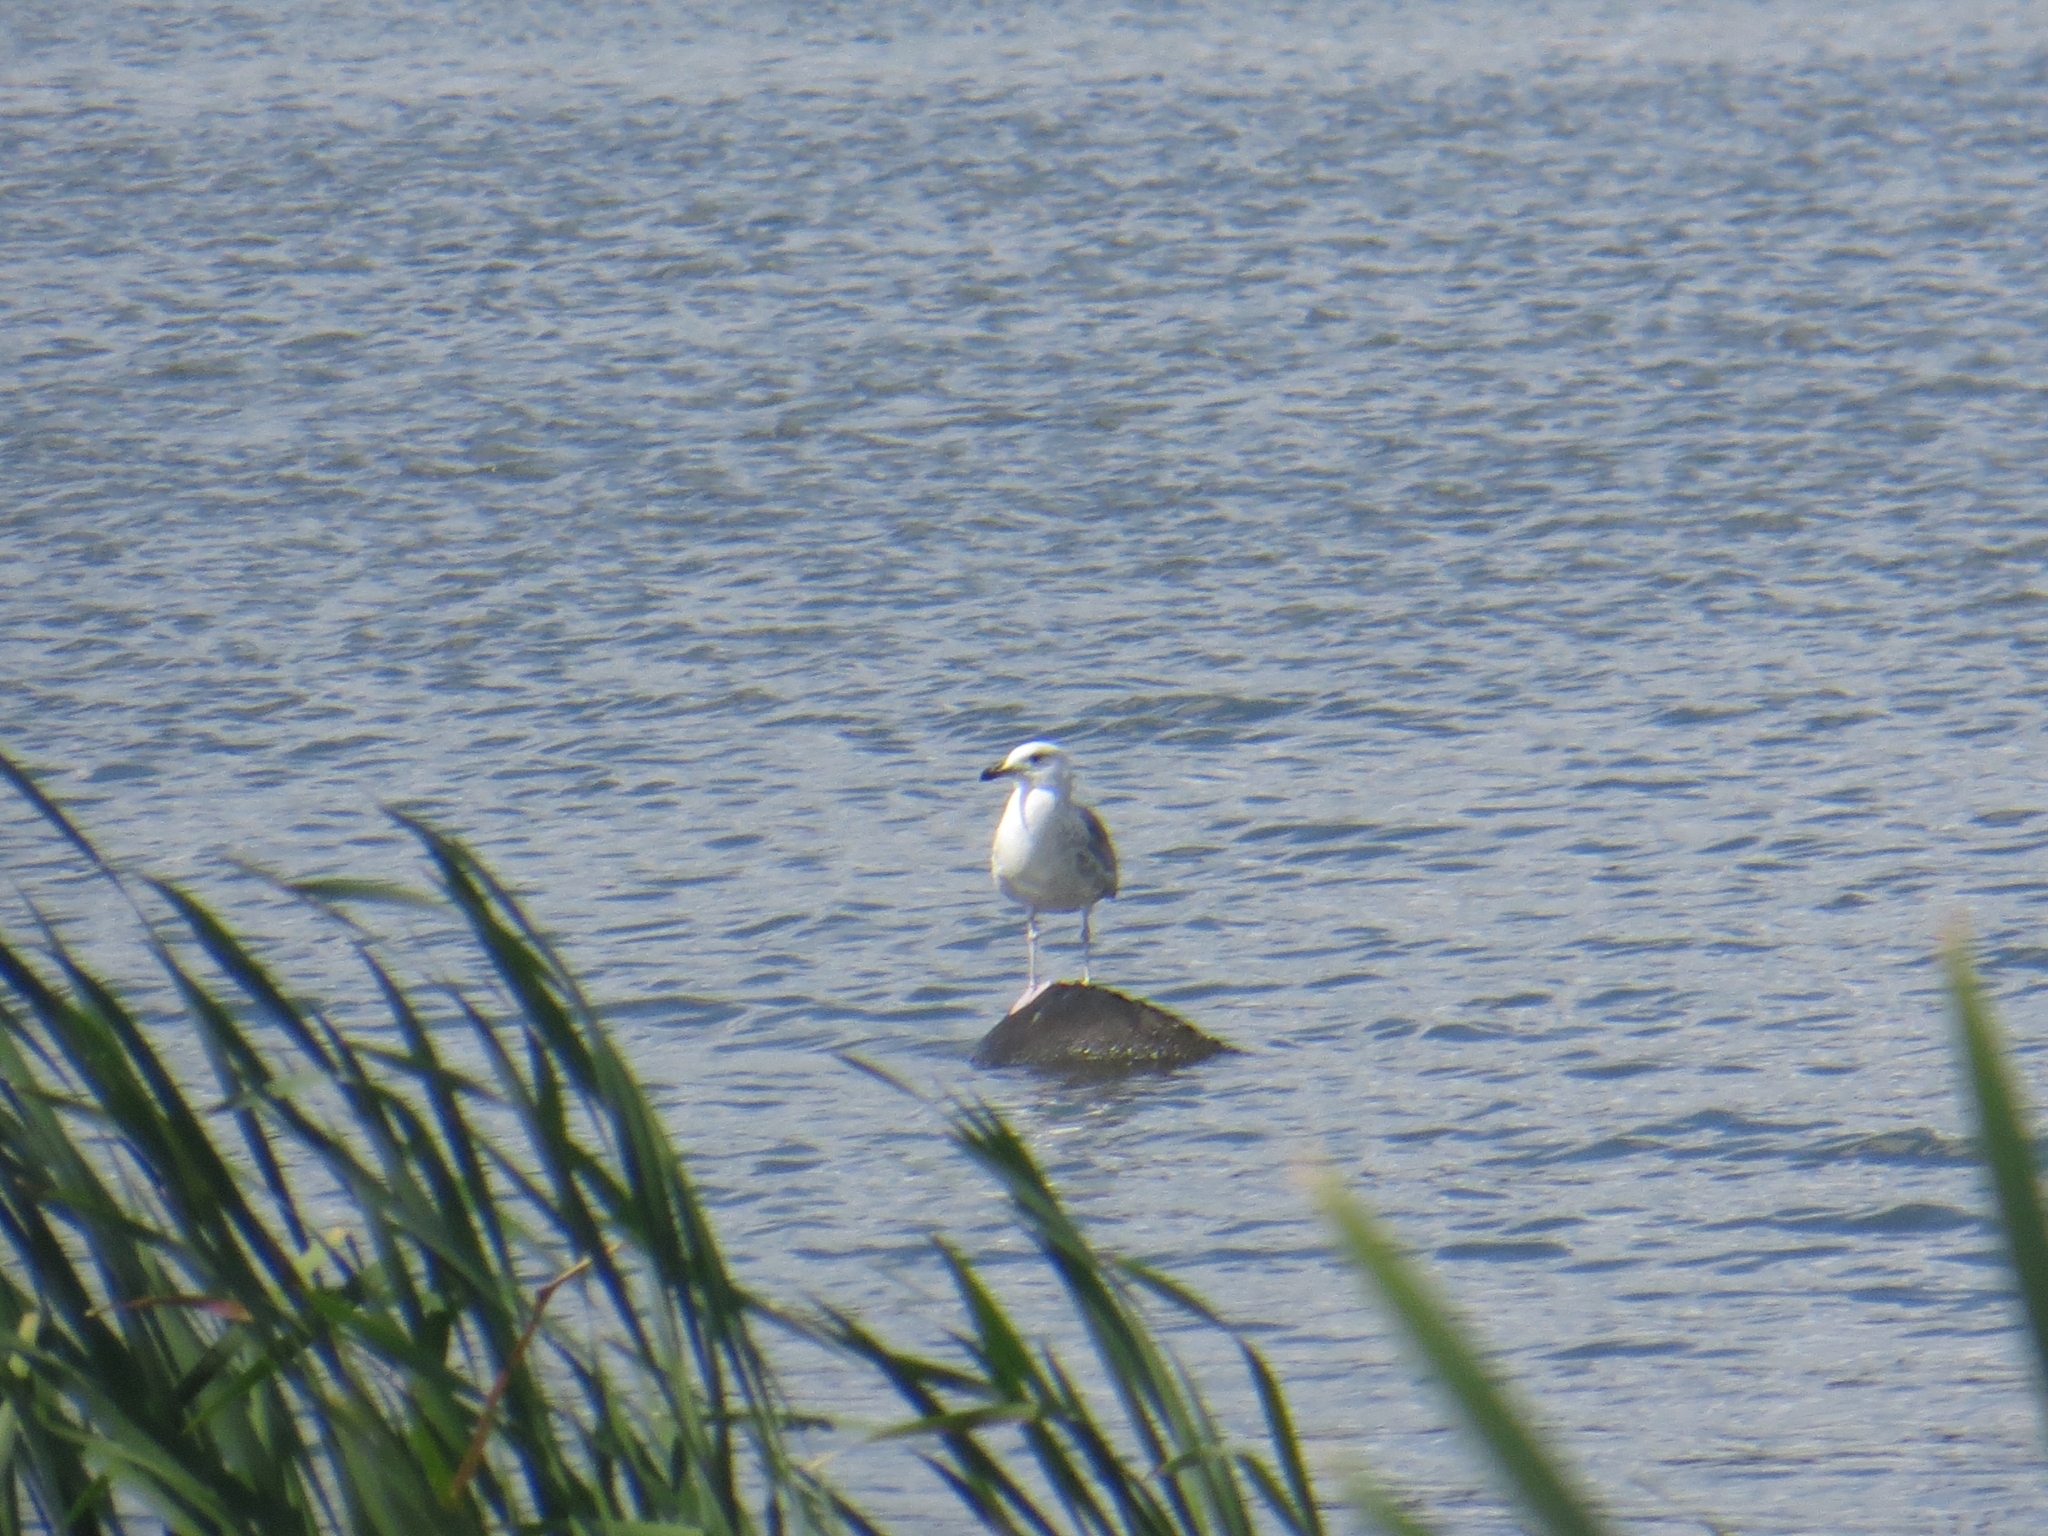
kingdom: Animalia
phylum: Chordata
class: Aves
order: Charadriiformes
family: Laridae
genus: Larus
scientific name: Larus fuscus
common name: Lesser black-backed gull
